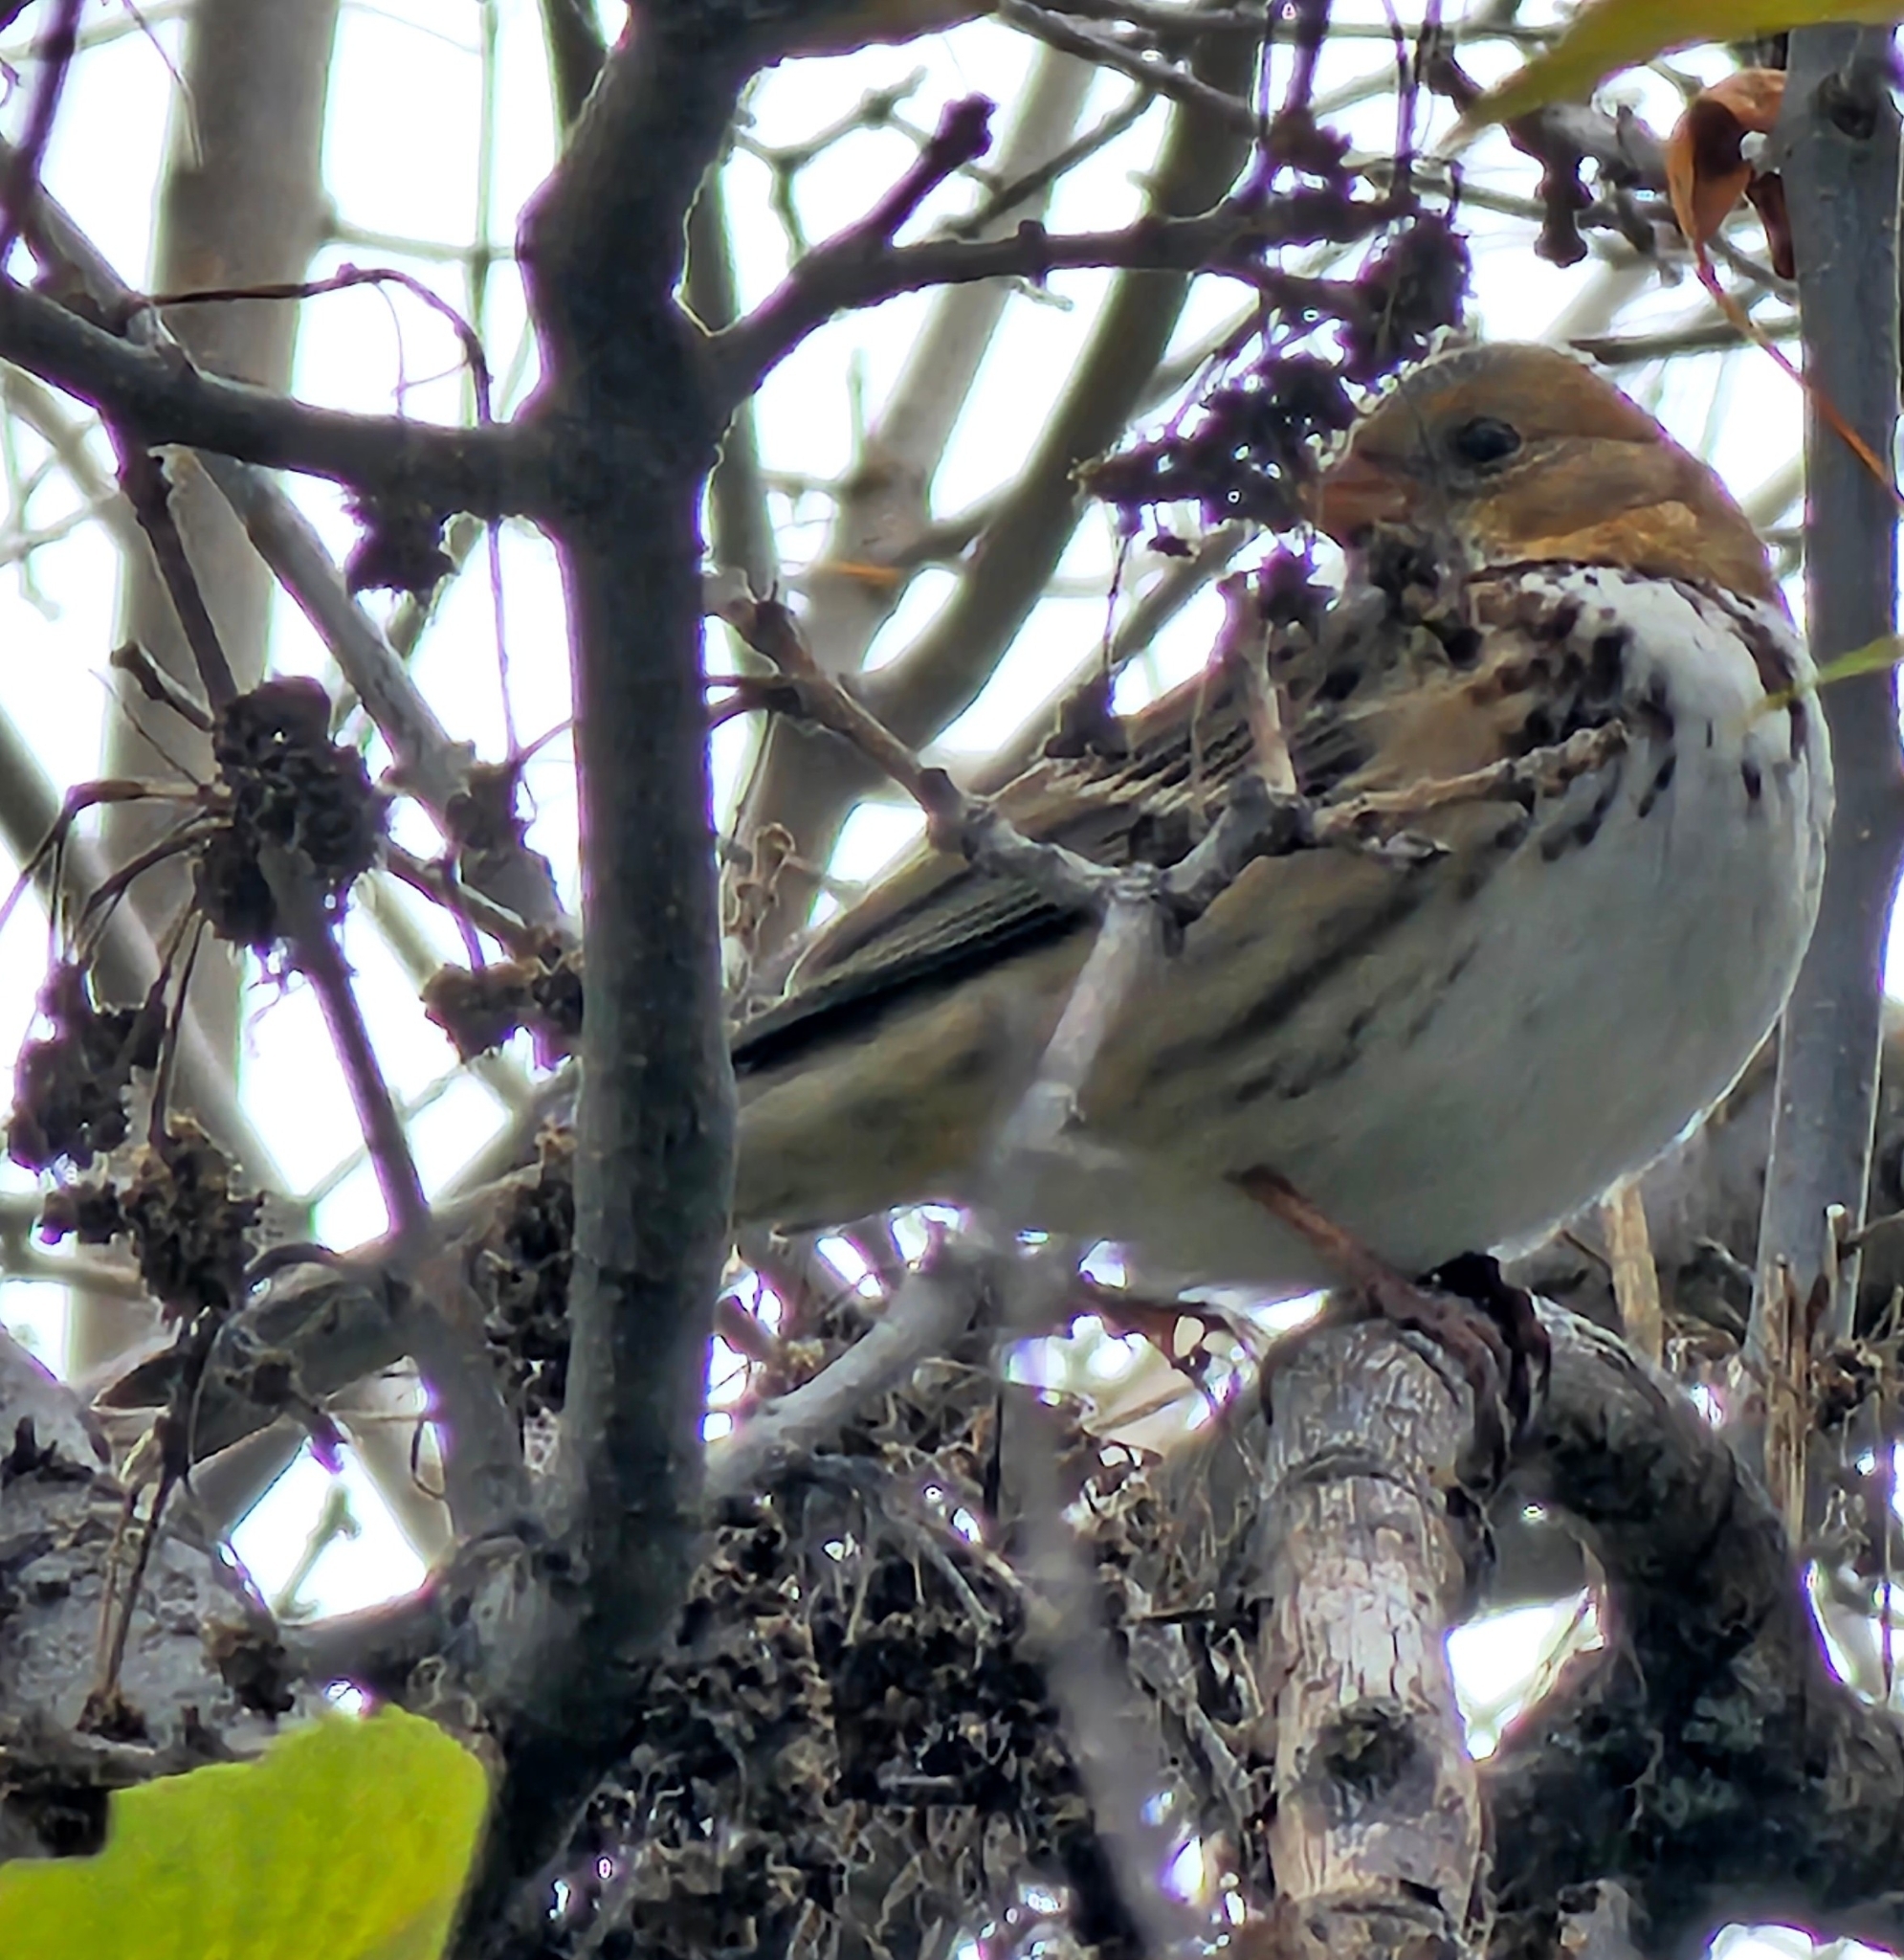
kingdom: Animalia
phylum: Chordata
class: Aves
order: Passeriformes
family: Passerellidae
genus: Zonotrichia
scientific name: Zonotrichia querula
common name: Harris's sparrow
